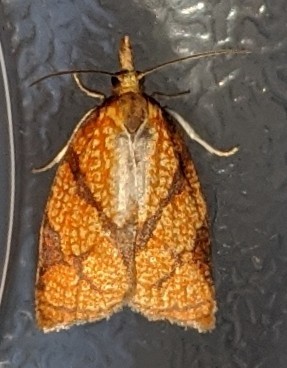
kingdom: Animalia
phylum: Arthropoda
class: Insecta
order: Lepidoptera
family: Tortricidae
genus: Cenopis
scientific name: Cenopis reticulatana
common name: Reticulated fruitworm moth
